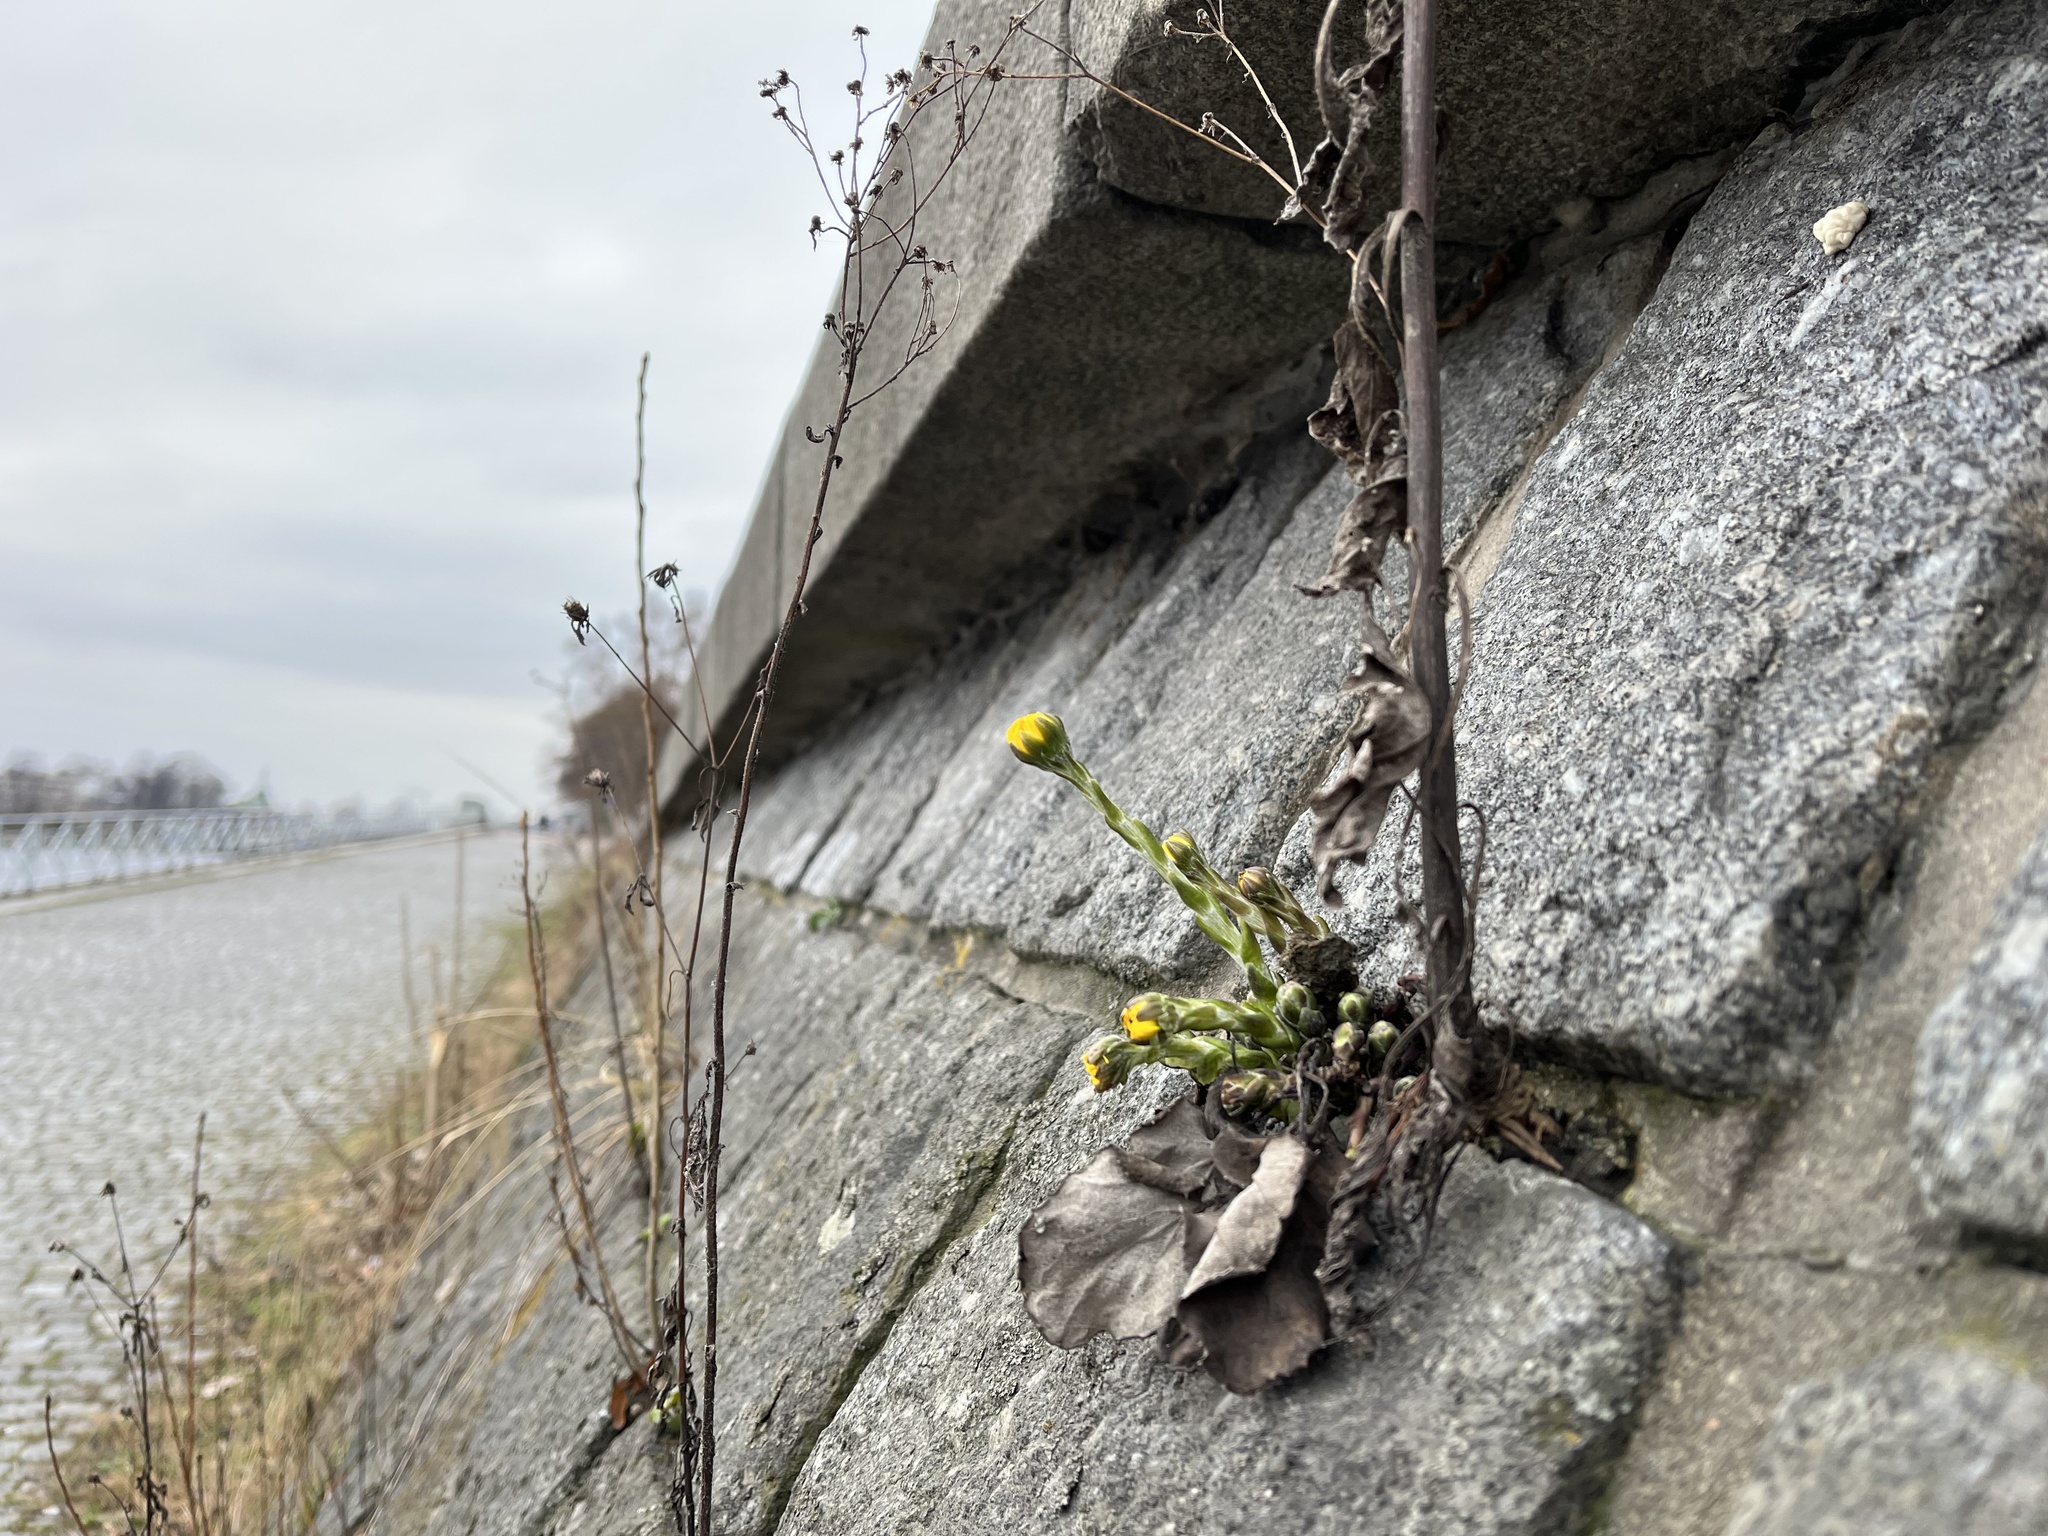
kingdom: Plantae
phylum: Tracheophyta
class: Magnoliopsida
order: Asterales
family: Asteraceae
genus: Tussilago
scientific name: Tussilago farfara
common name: Coltsfoot
